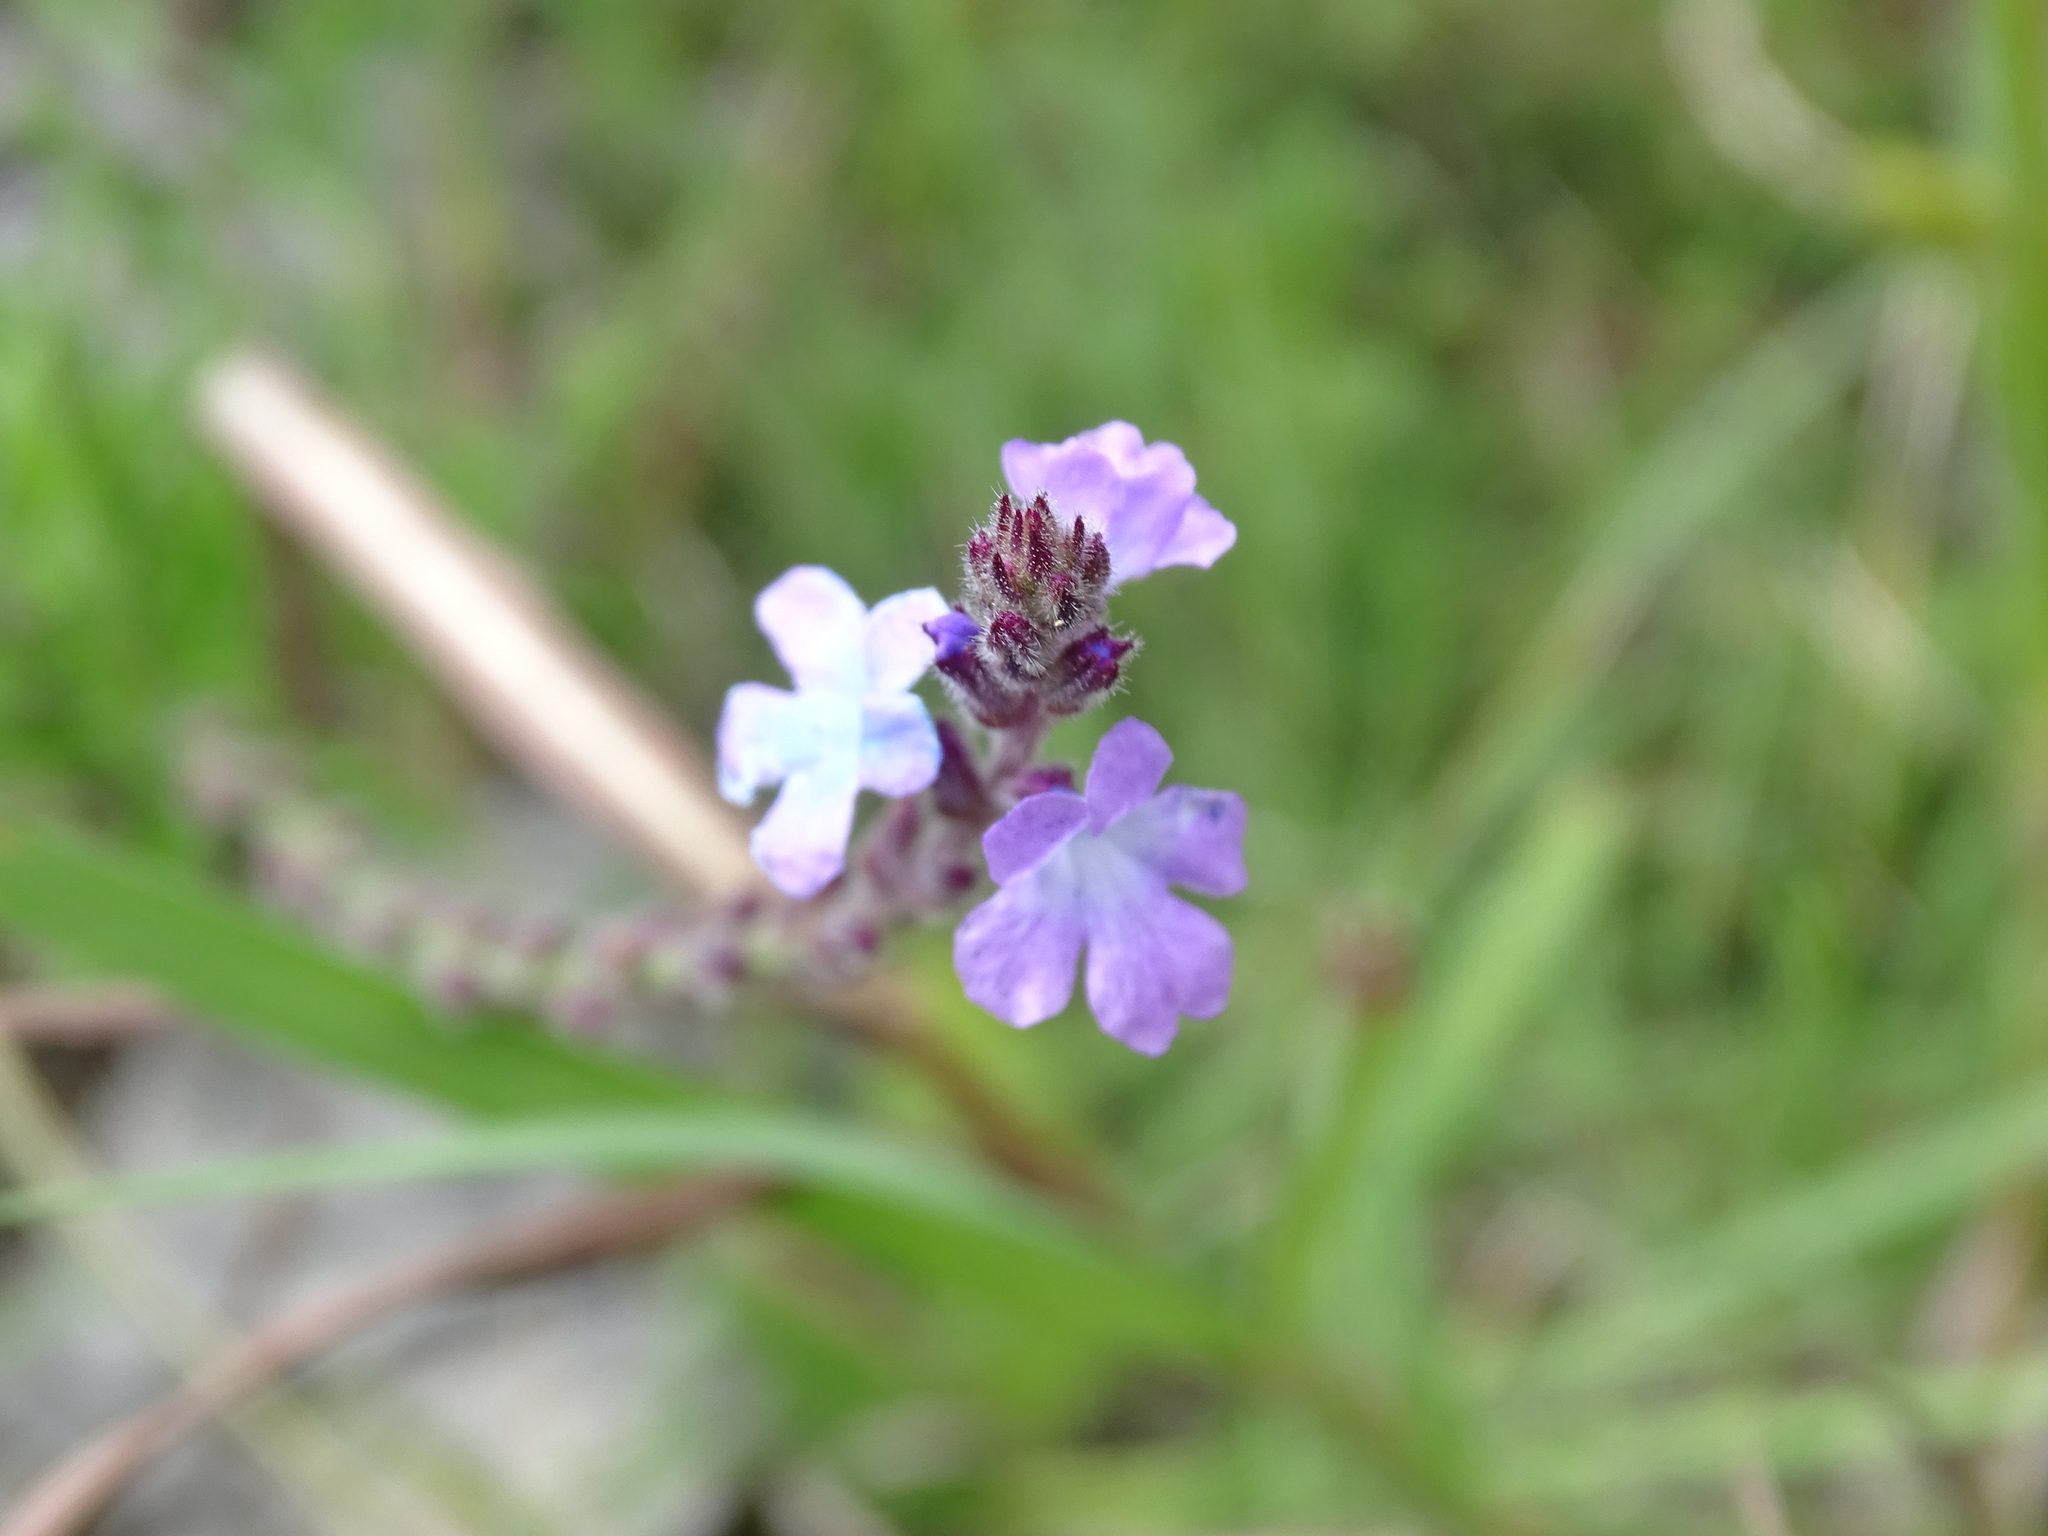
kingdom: Plantae
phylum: Tracheophyta
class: Magnoliopsida
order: Lamiales
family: Verbenaceae
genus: Verbena
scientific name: Verbena canescens
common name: Gray vervain
